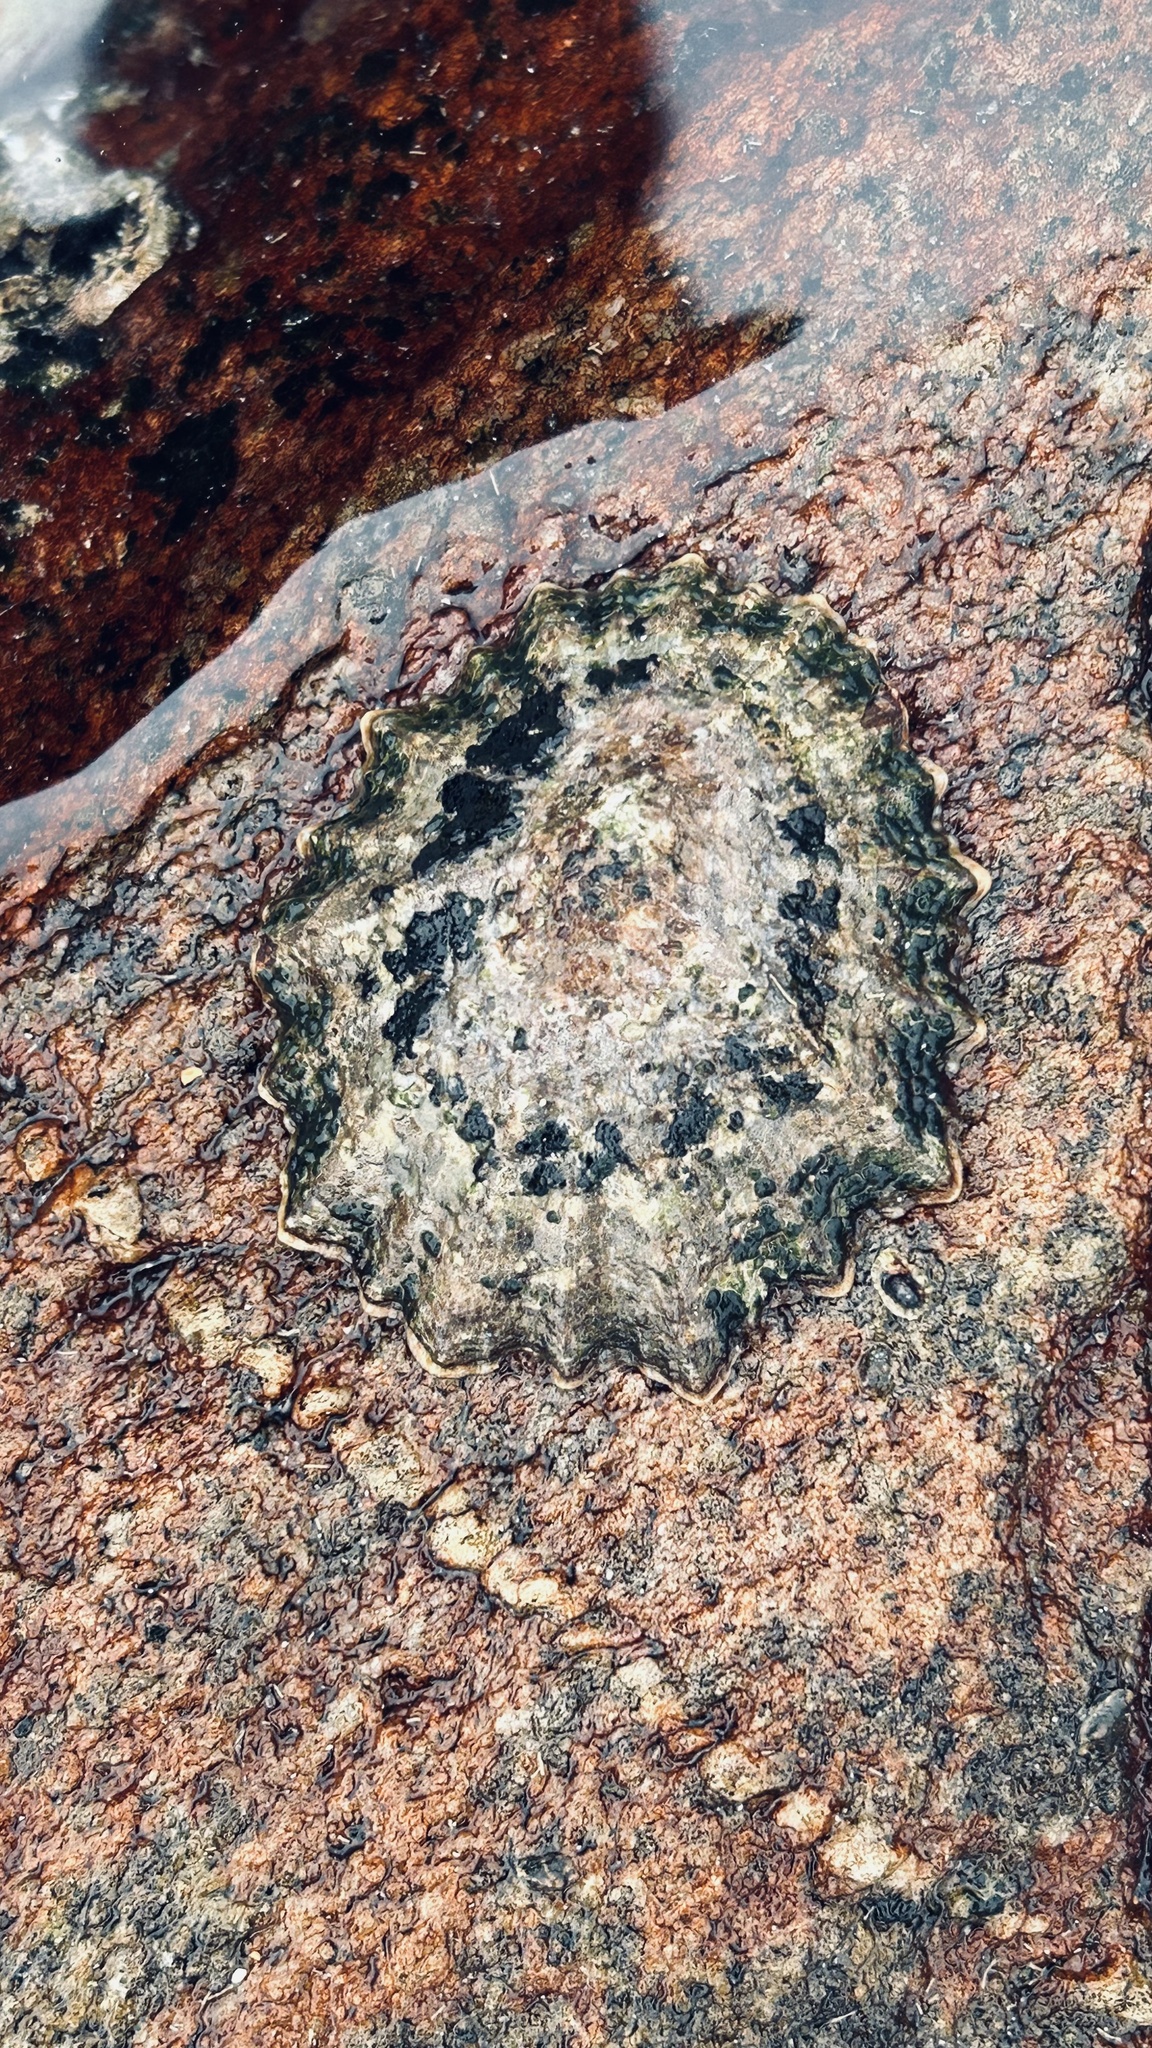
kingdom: Animalia
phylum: Mollusca
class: Gastropoda
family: Patellidae
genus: Cymbula
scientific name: Cymbula granatina
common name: Granite limpet
